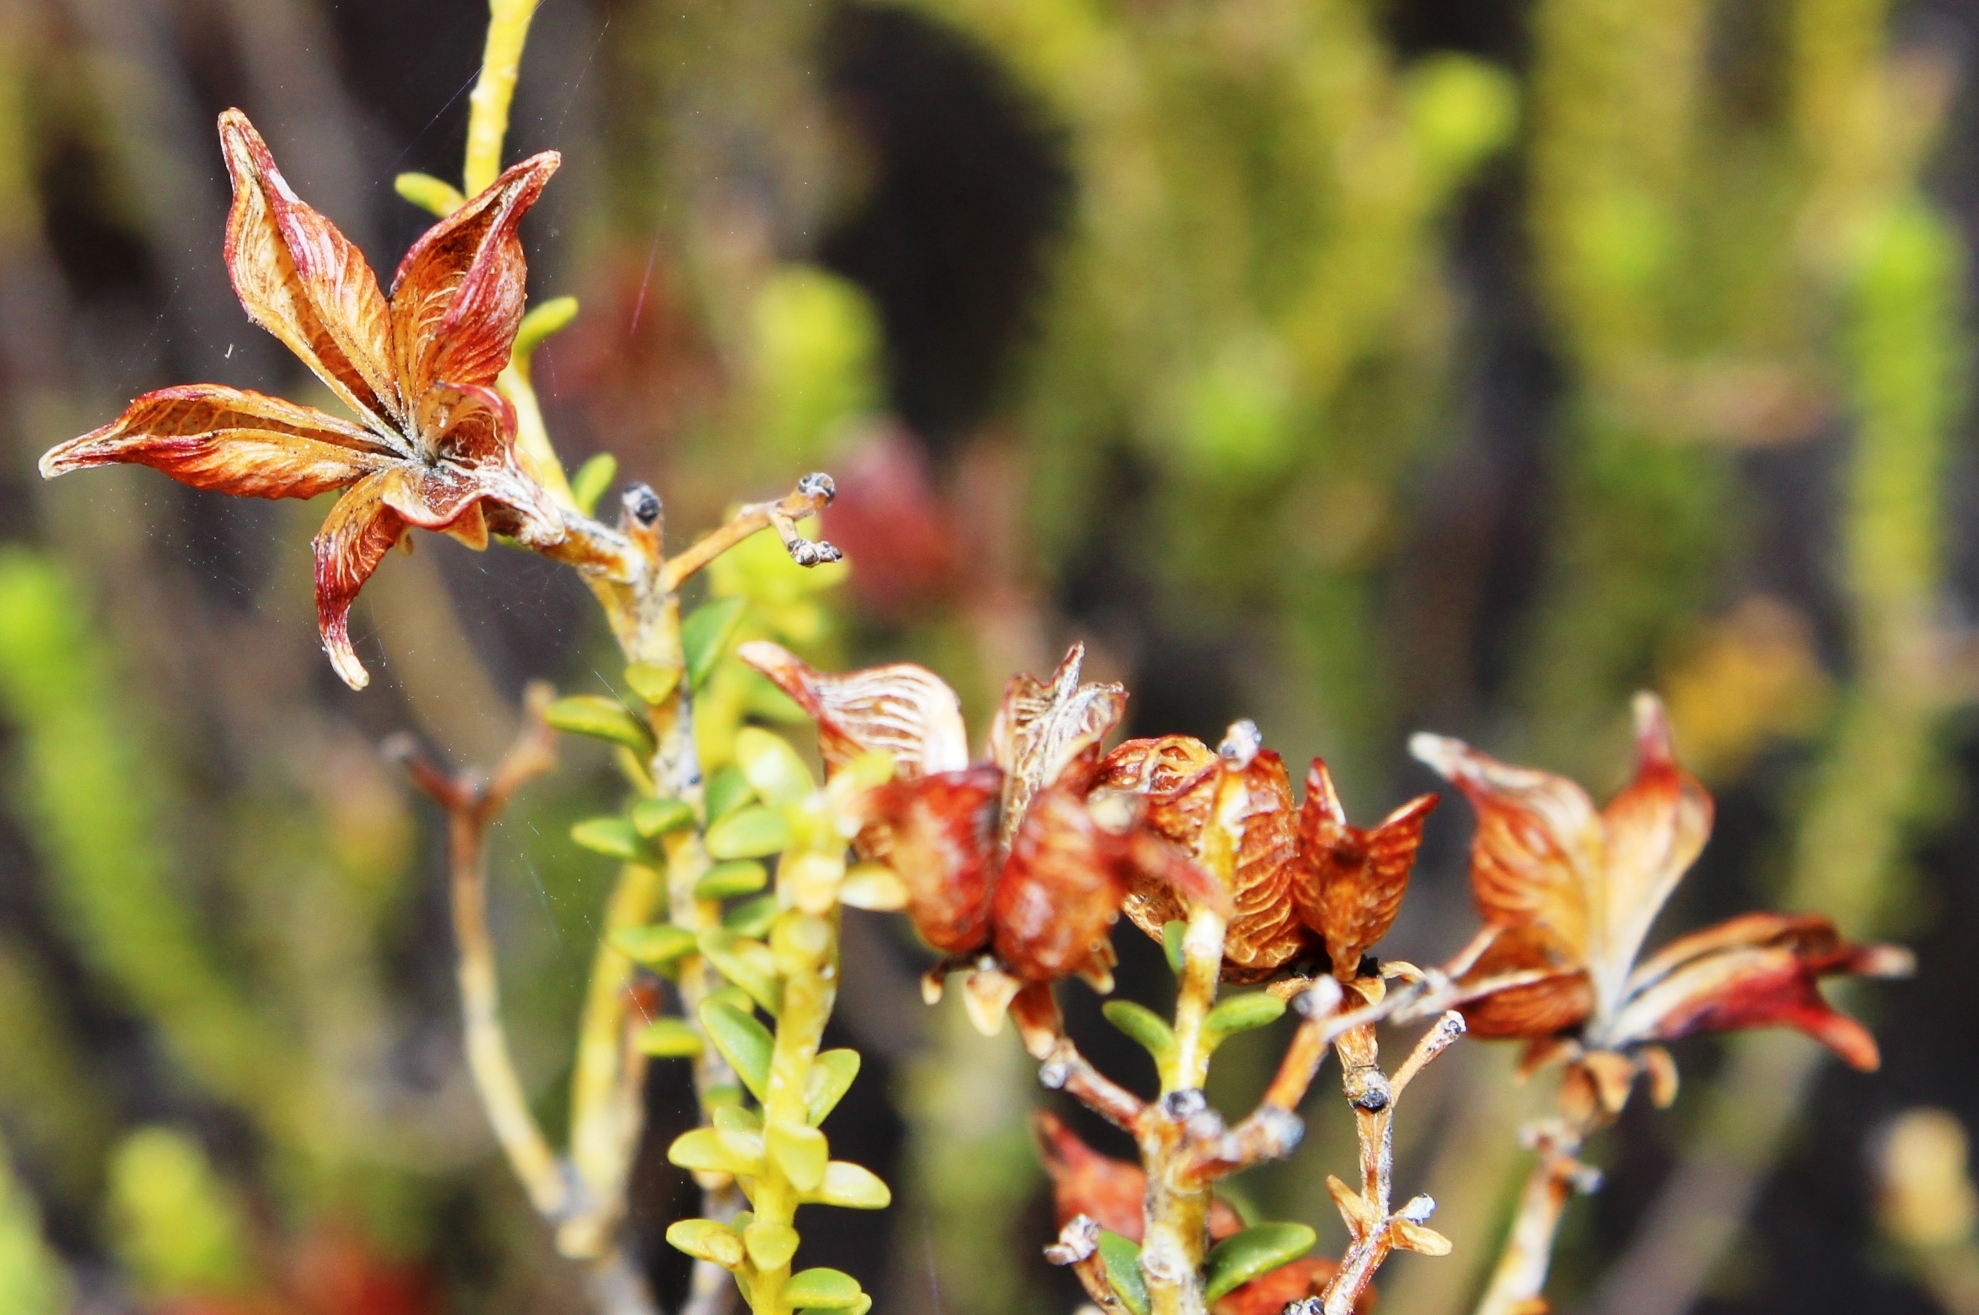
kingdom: Plantae
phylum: Tracheophyta
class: Magnoliopsida
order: Sapindales
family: Rutaceae
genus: Diosma
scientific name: Diosma recurva
